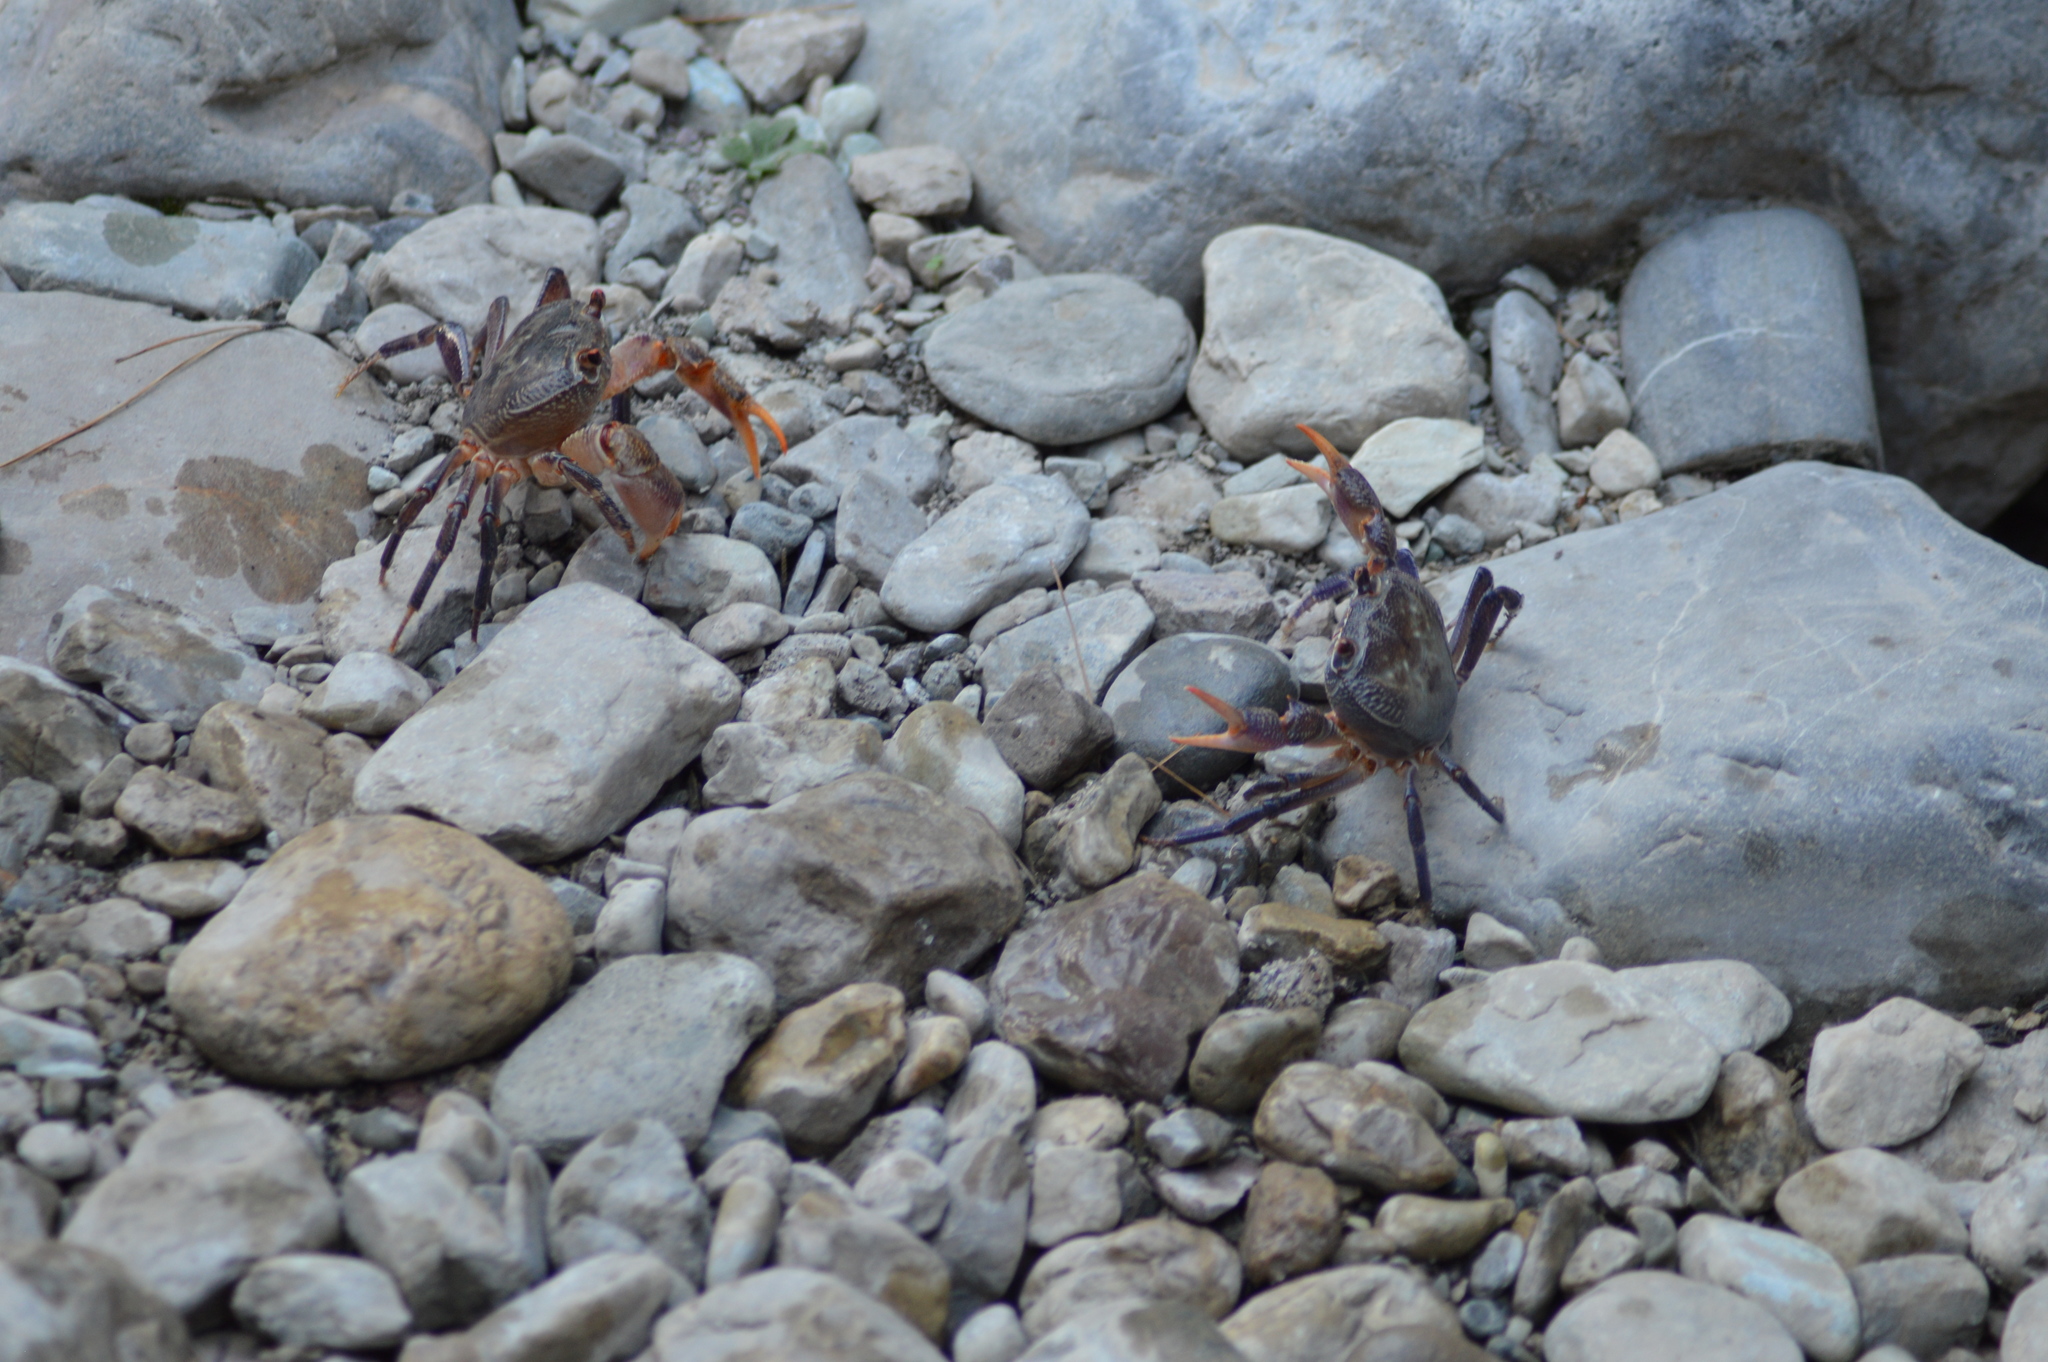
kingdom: Animalia
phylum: Arthropoda
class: Malacostraca
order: Decapoda
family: Potamidae
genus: Potamon
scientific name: Potamon karpathos
